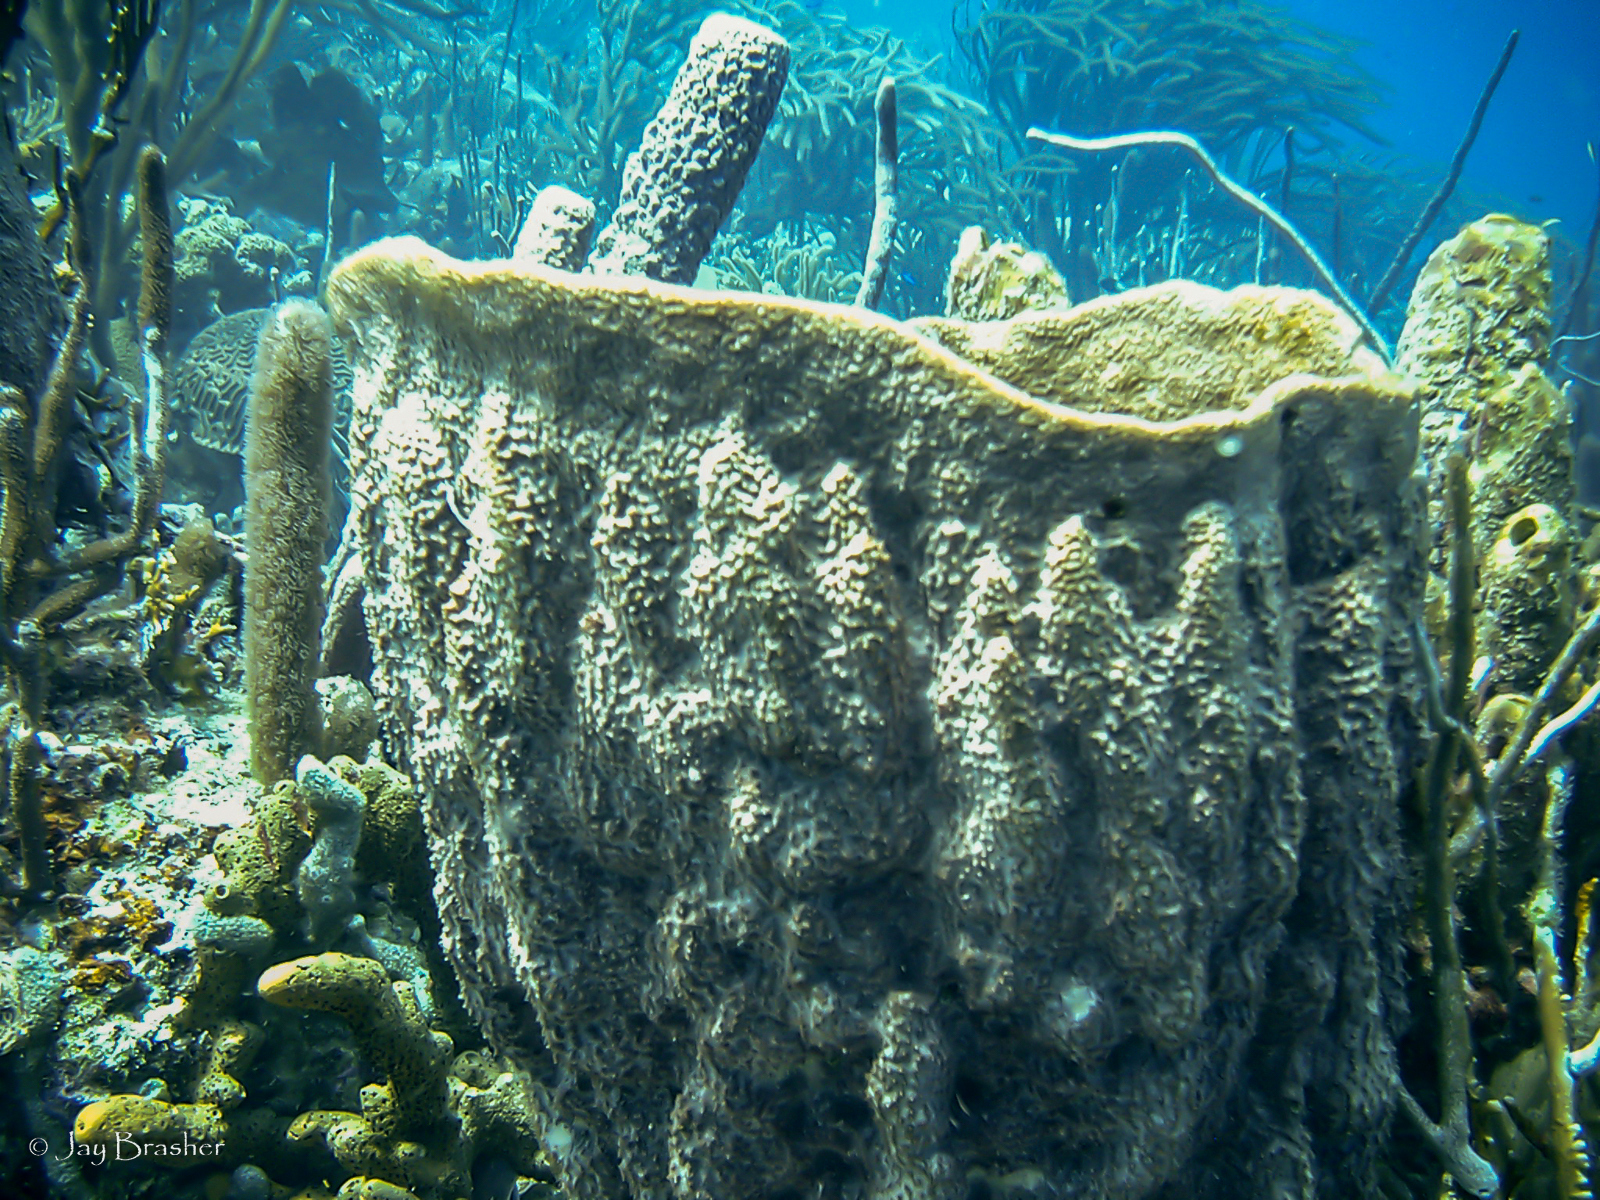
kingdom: Animalia
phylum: Porifera
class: Demospongiae
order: Dictyoceratida
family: Irciniidae
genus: Ircinia
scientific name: Ircinia campana
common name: Vase sponge
